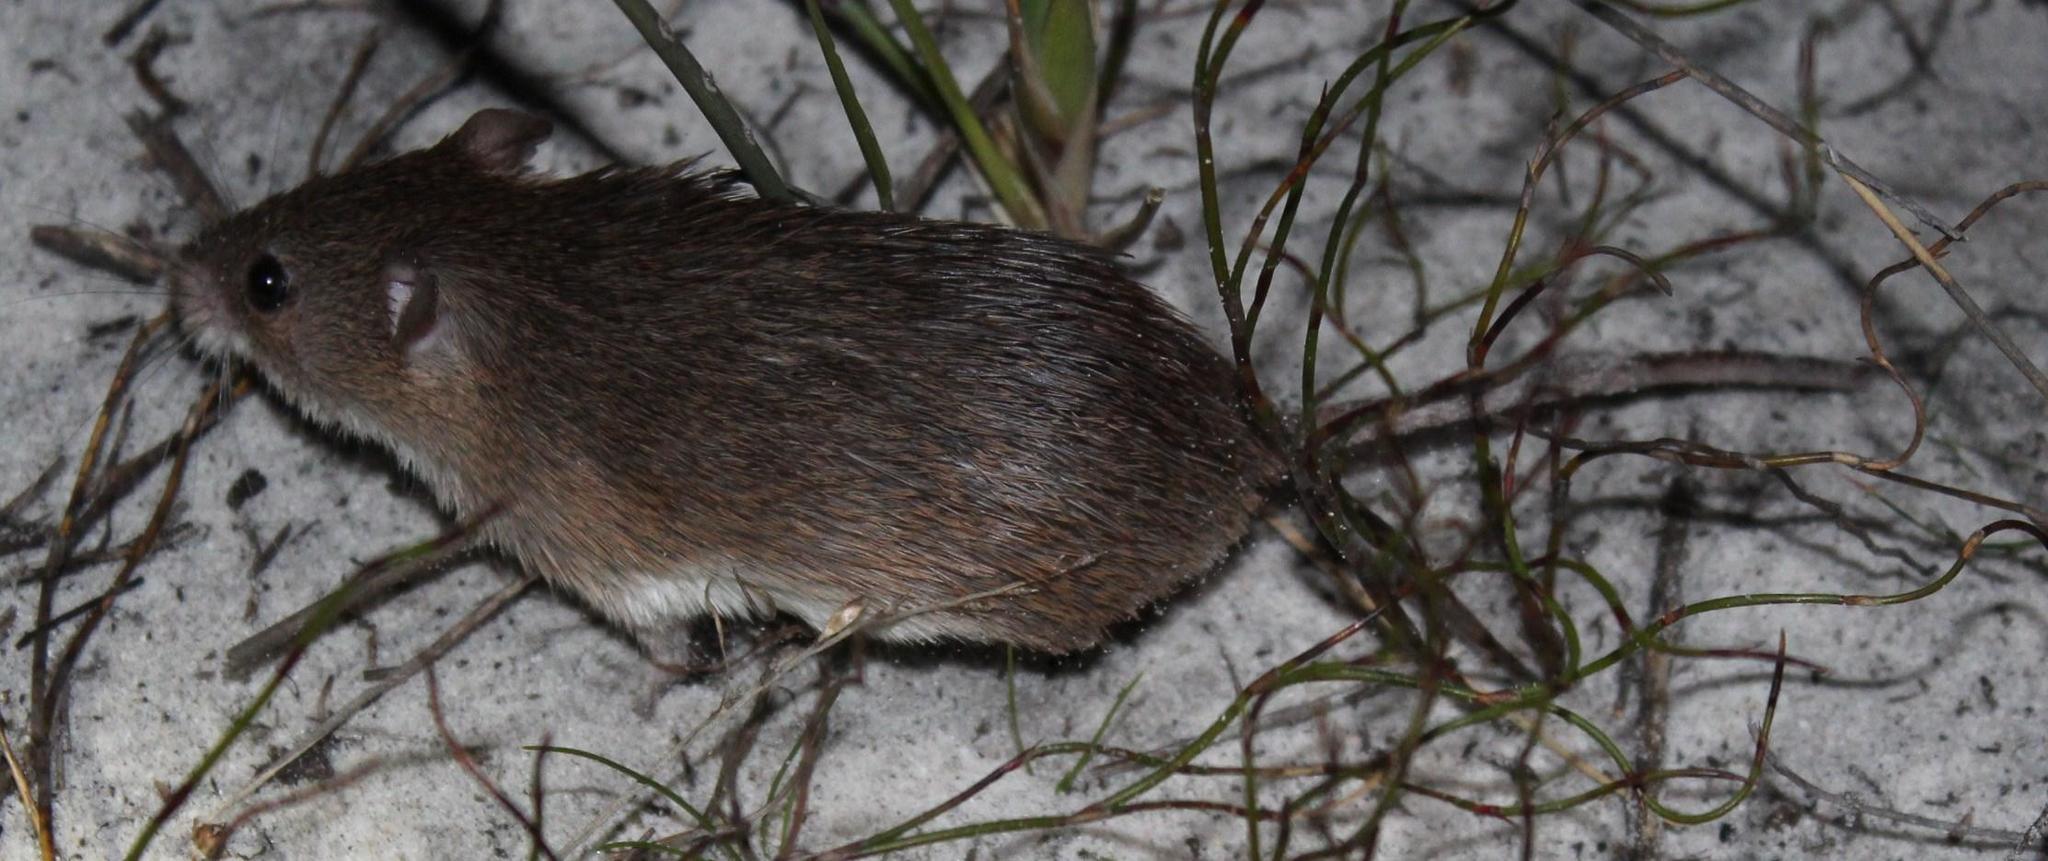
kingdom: Animalia
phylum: Chordata
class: Mammalia
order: Rodentia
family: Muridae
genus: Acomys
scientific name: Acomys subspinosus
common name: Cape spiny mouse
